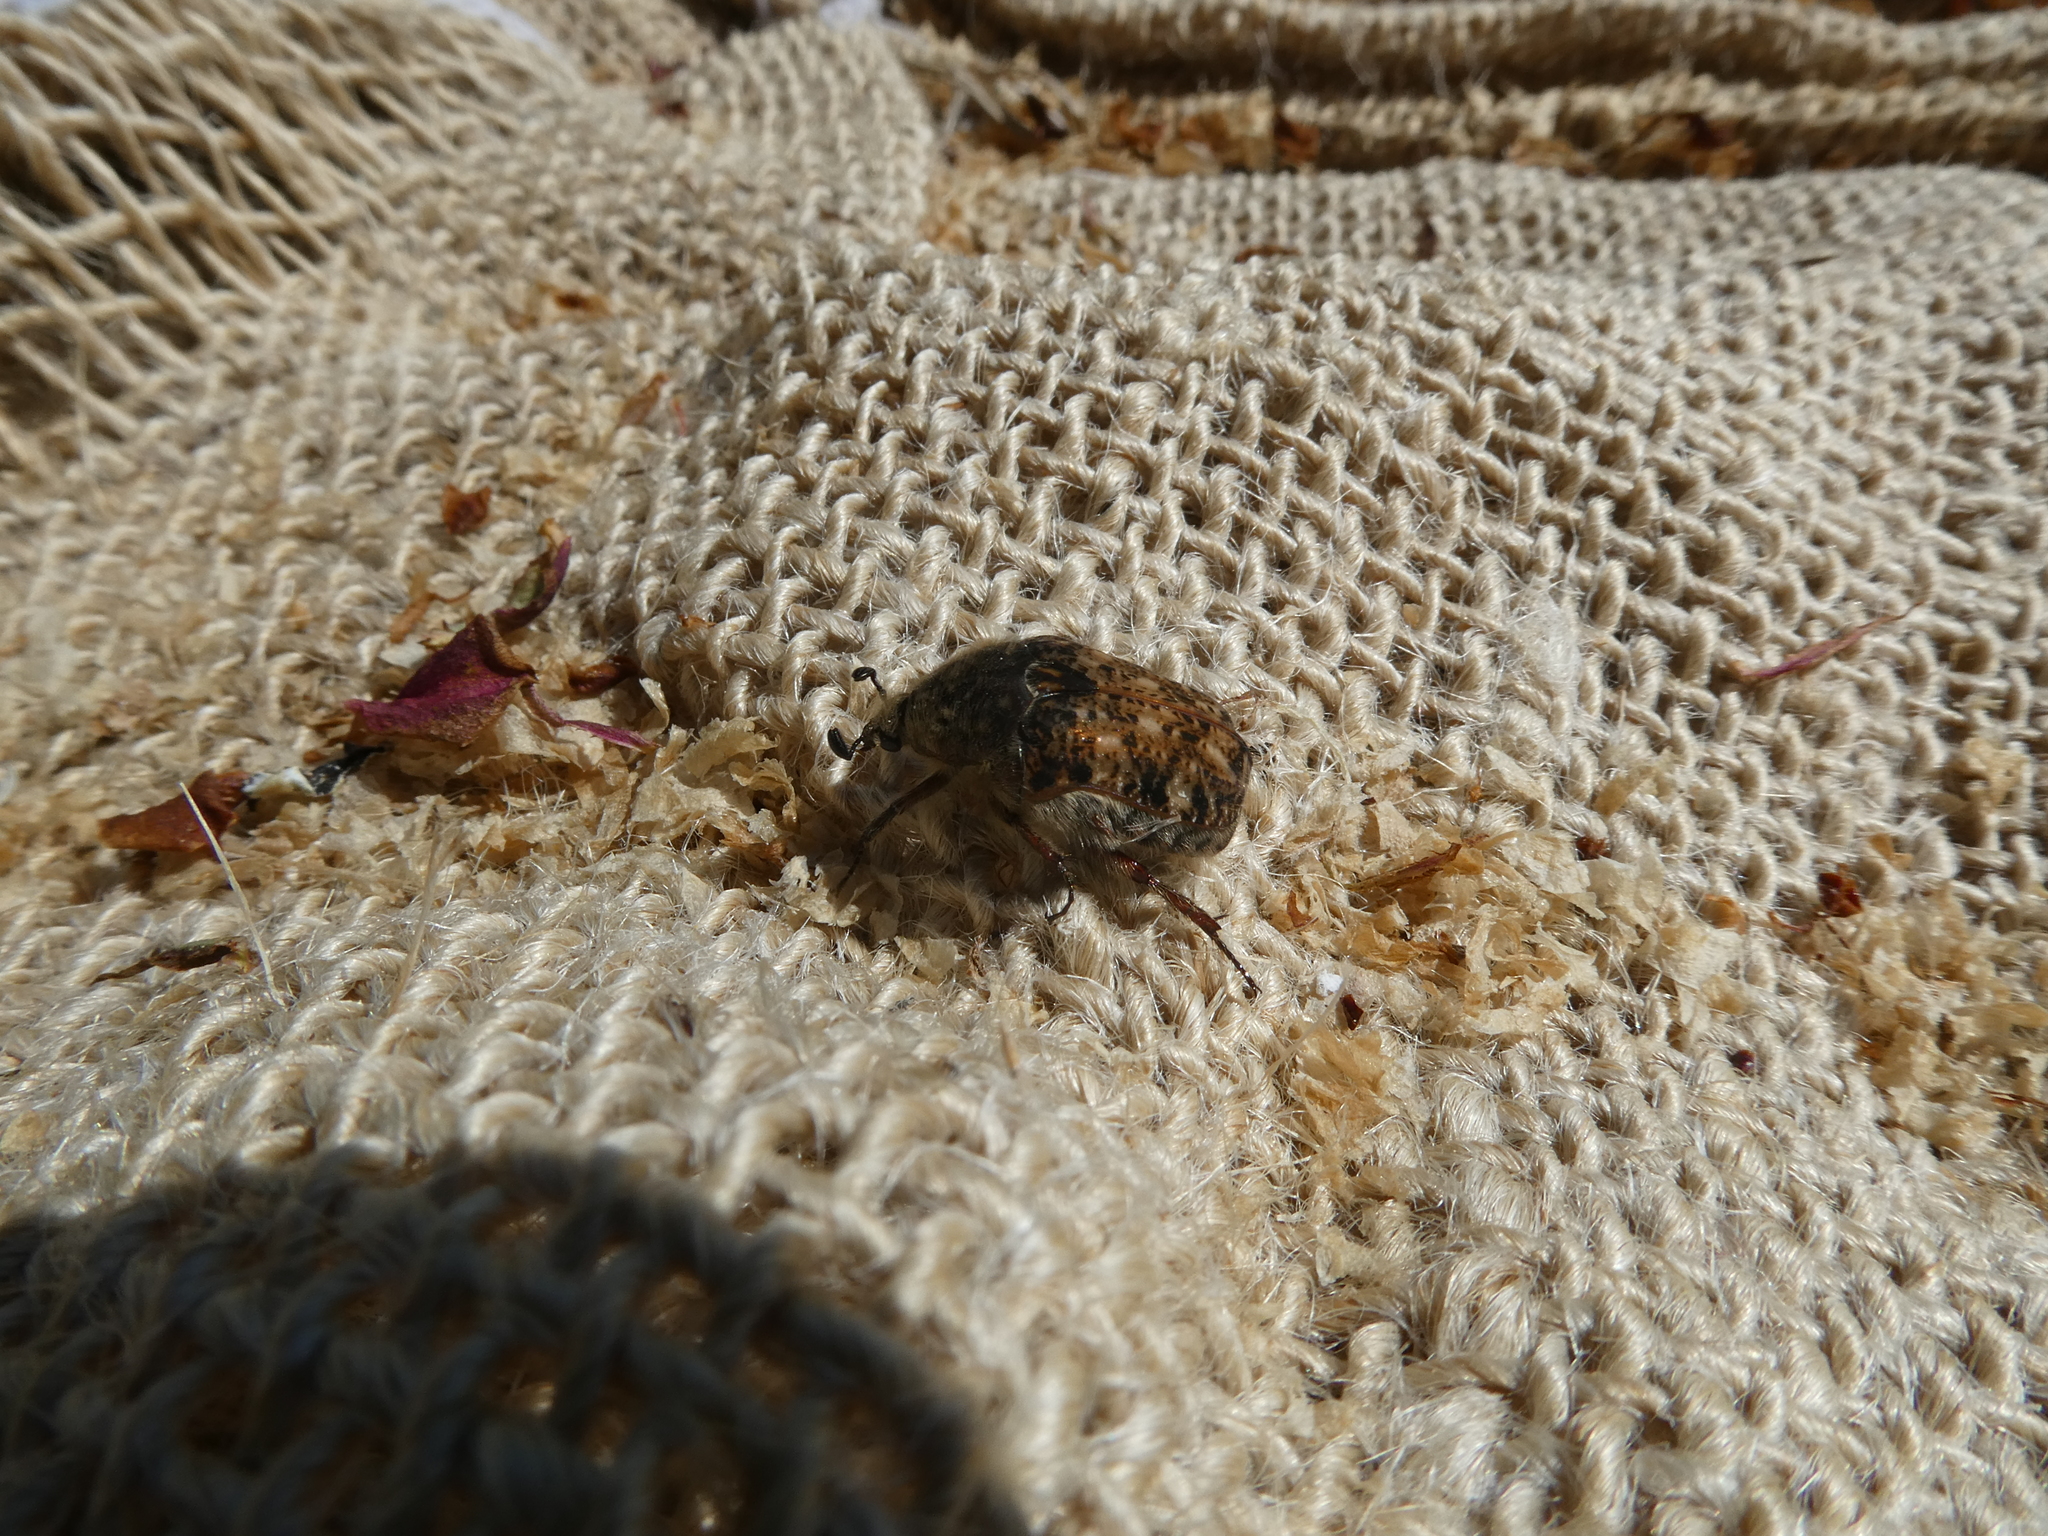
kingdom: Animalia
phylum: Arthropoda
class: Insecta
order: Coleoptera
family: Scarabaeidae
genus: Euphoria
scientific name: Euphoria inda
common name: Bumble flower beetle
